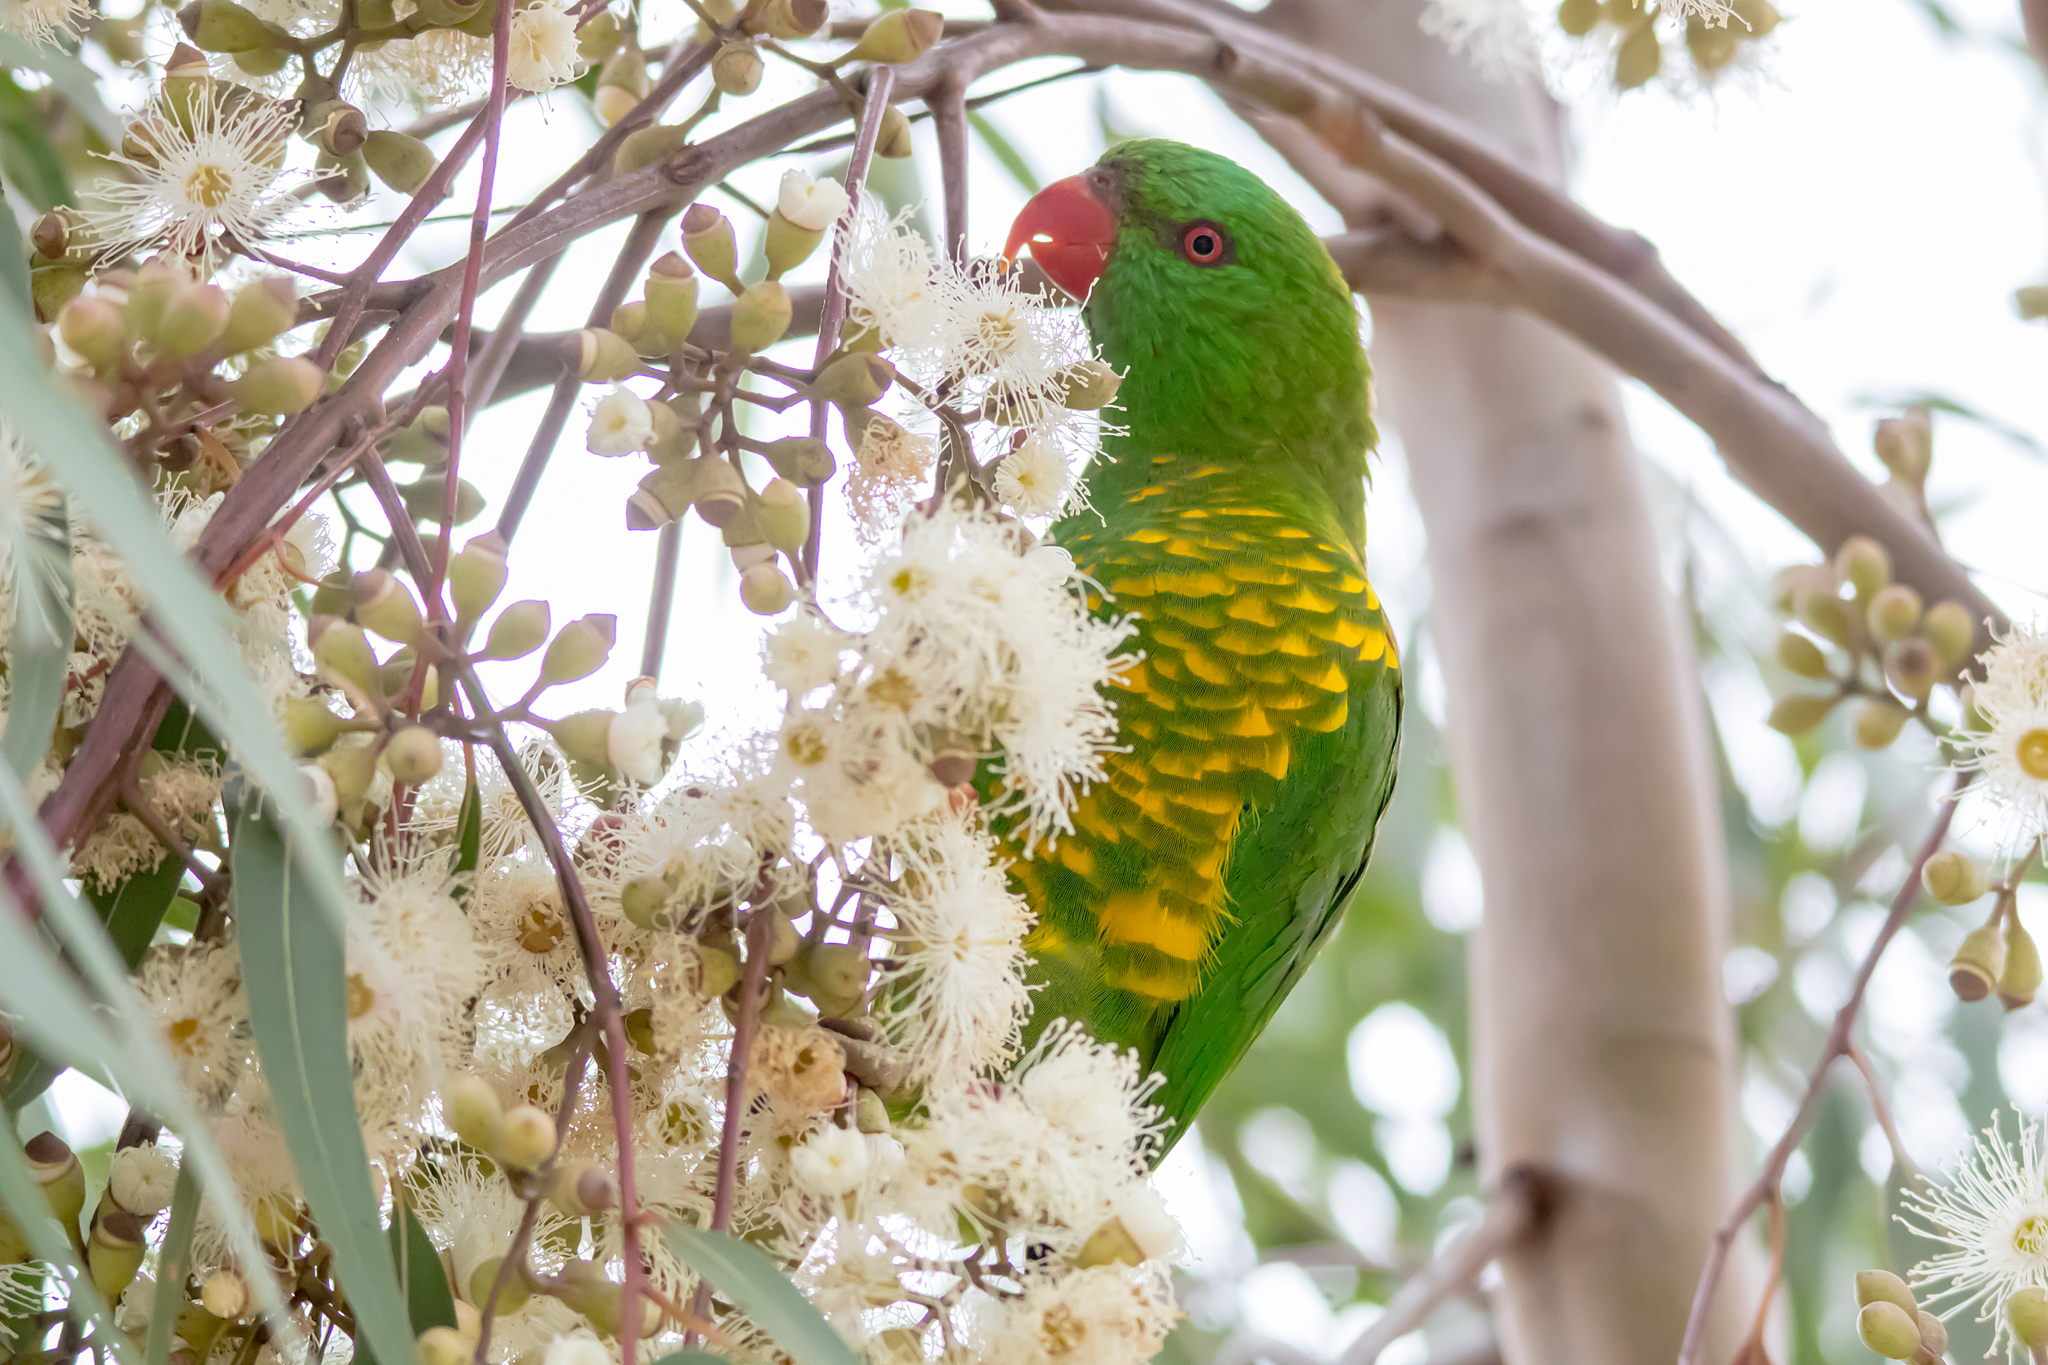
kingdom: Animalia
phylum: Chordata
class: Aves
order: Psittaciformes
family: Psittacidae
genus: Trichoglossus
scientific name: Trichoglossus chlorolepidotus
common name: Scaly-breasted lorikeet
